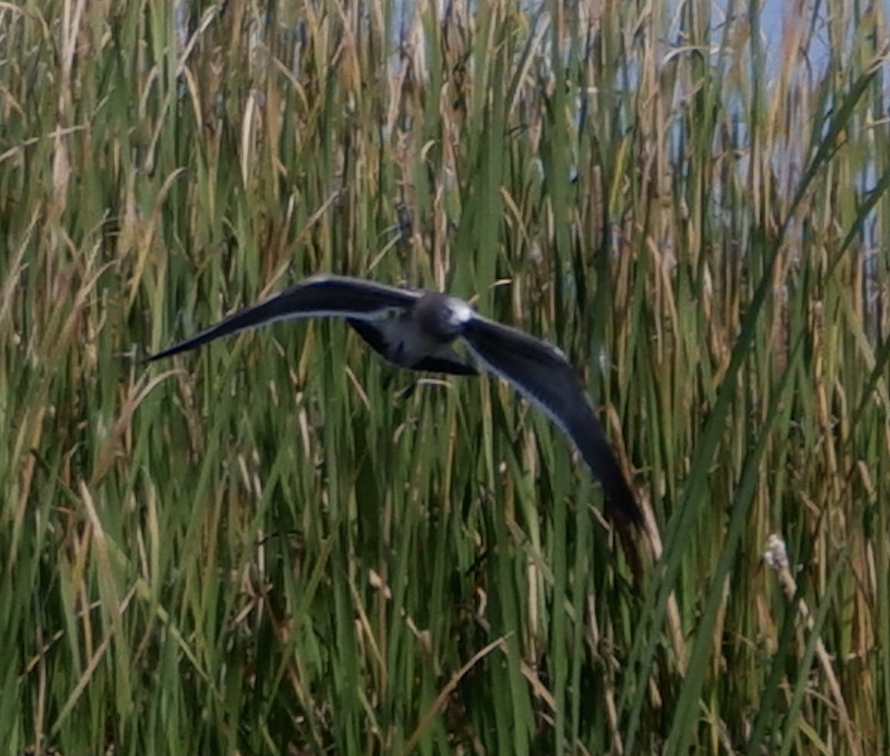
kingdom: Animalia
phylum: Chordata
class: Aves
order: Charadriiformes
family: Laridae
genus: Leucophaeus
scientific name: Leucophaeus atricilla
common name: Laughing gull
